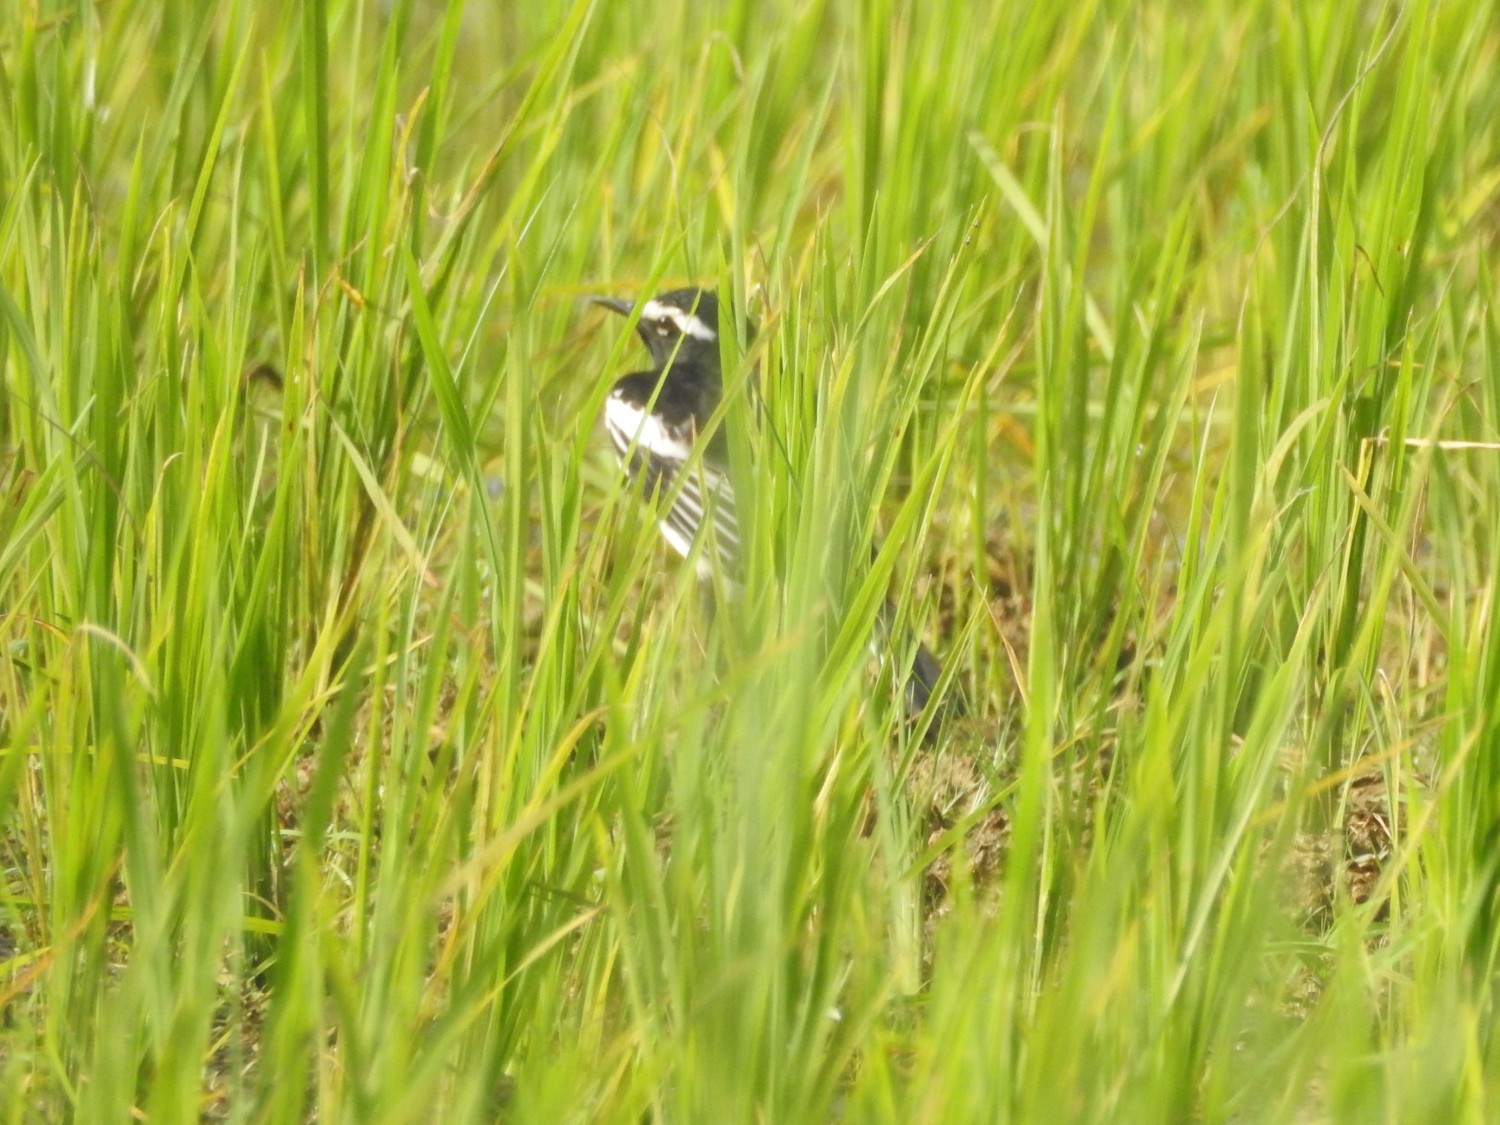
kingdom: Animalia
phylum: Chordata
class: Aves
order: Passeriformes
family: Motacillidae
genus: Motacilla
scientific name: Motacilla maderaspatensis
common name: White-browed wagtail
